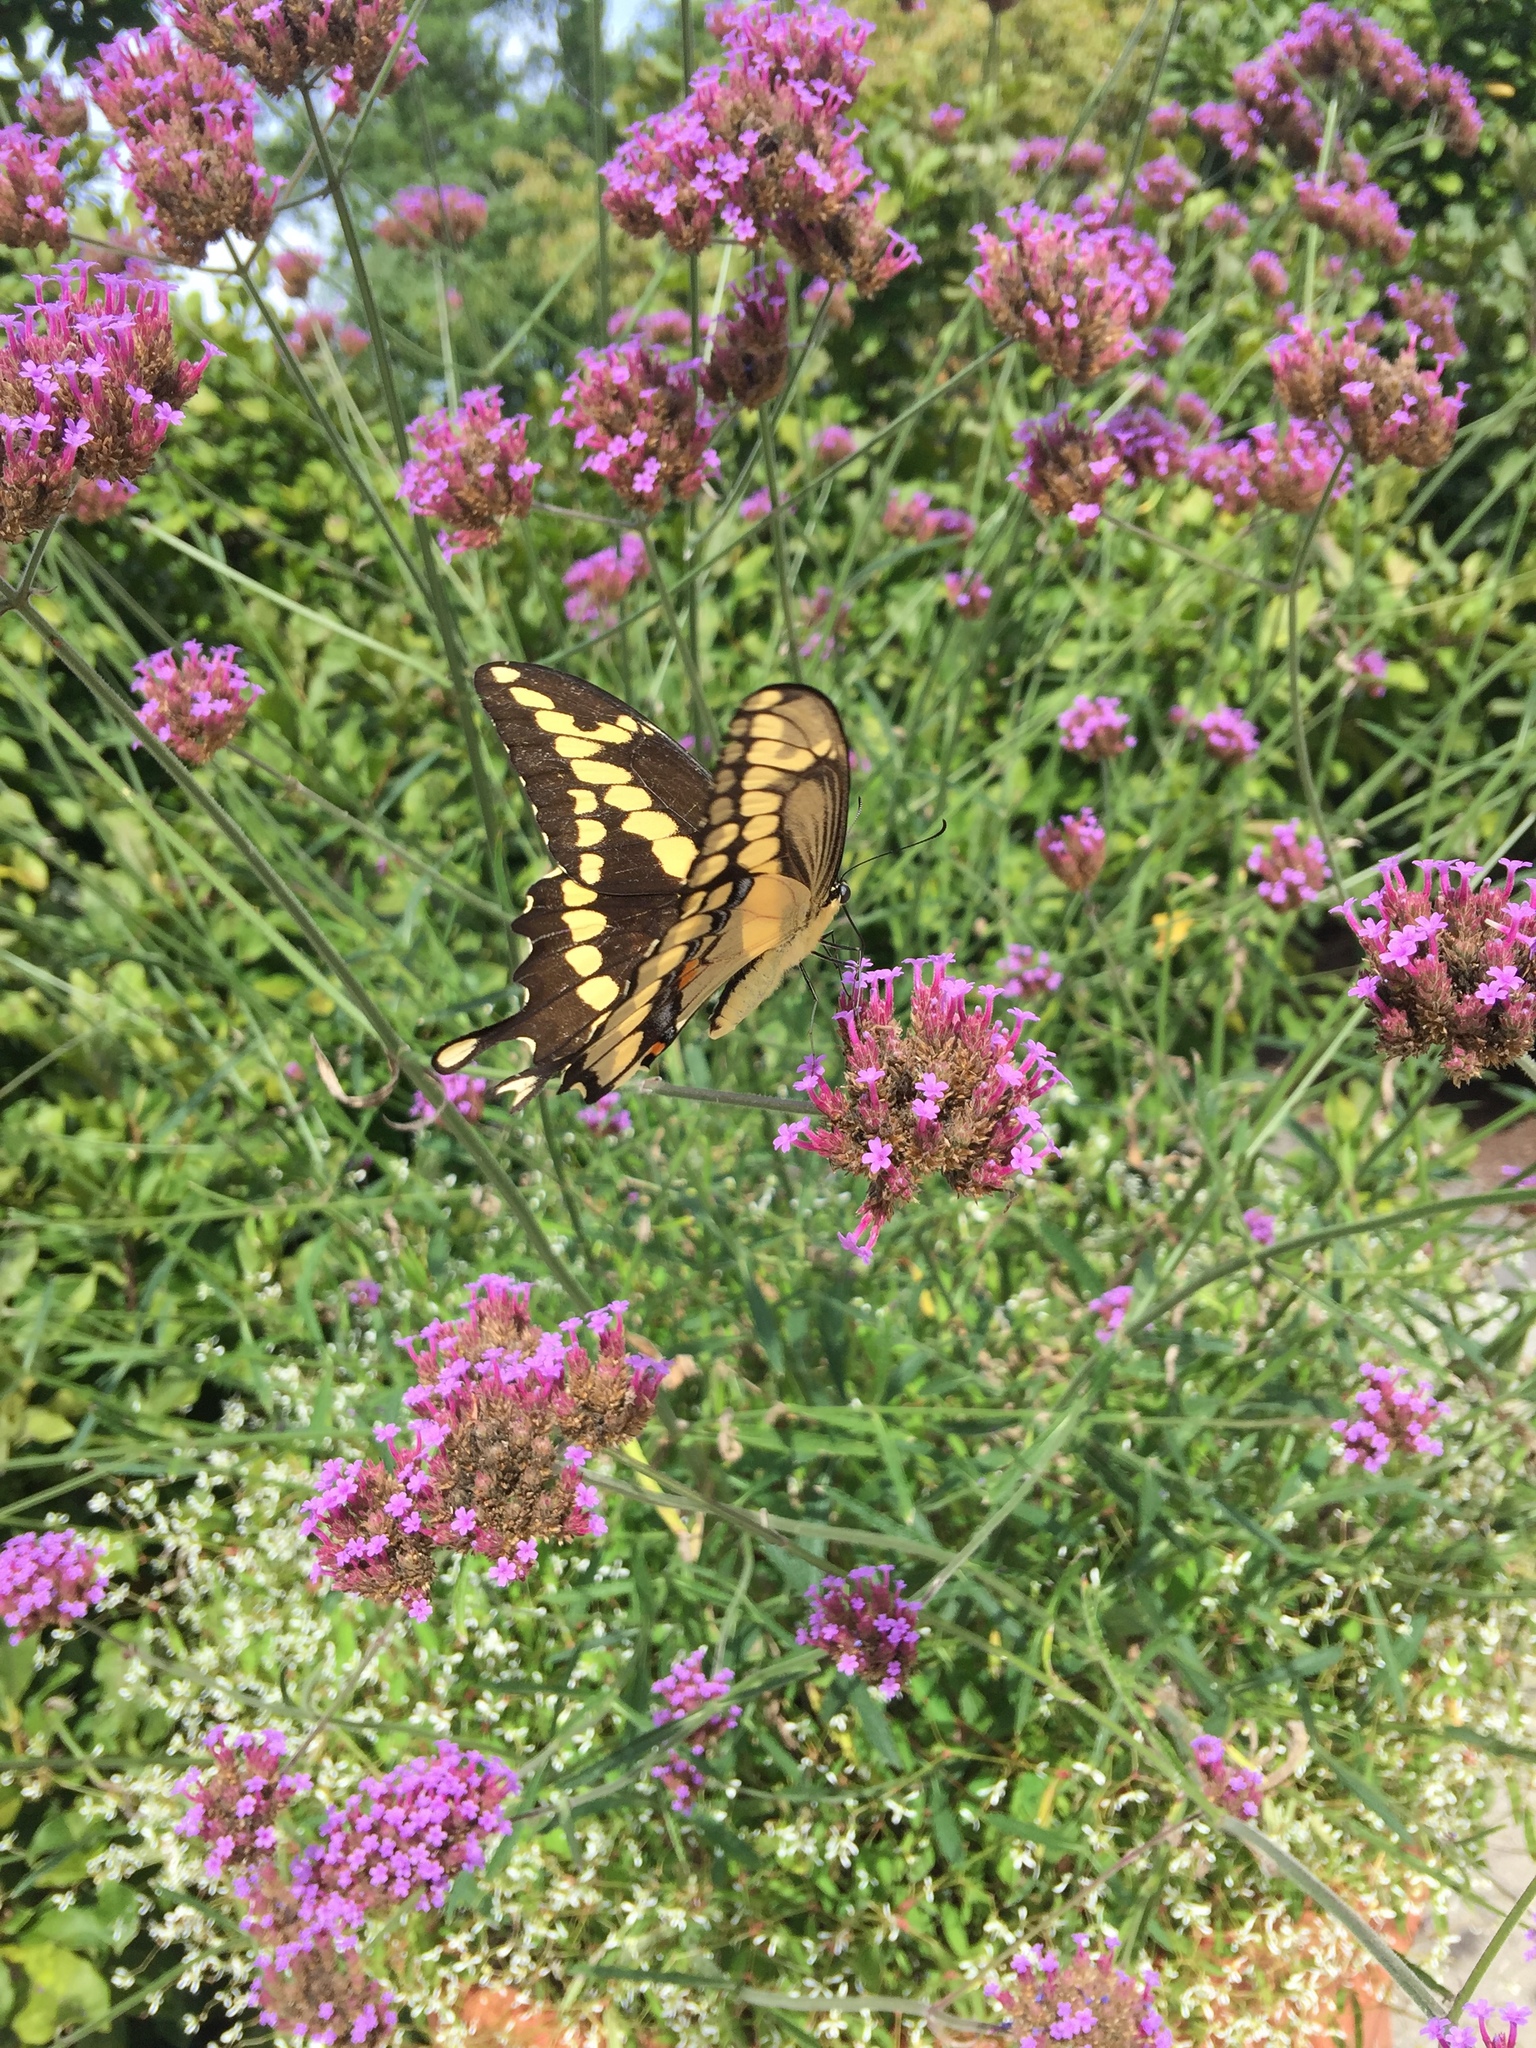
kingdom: Animalia
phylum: Arthropoda
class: Insecta
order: Lepidoptera
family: Papilionidae
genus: Papilio
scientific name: Papilio cresphontes
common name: Giant swallowtail
